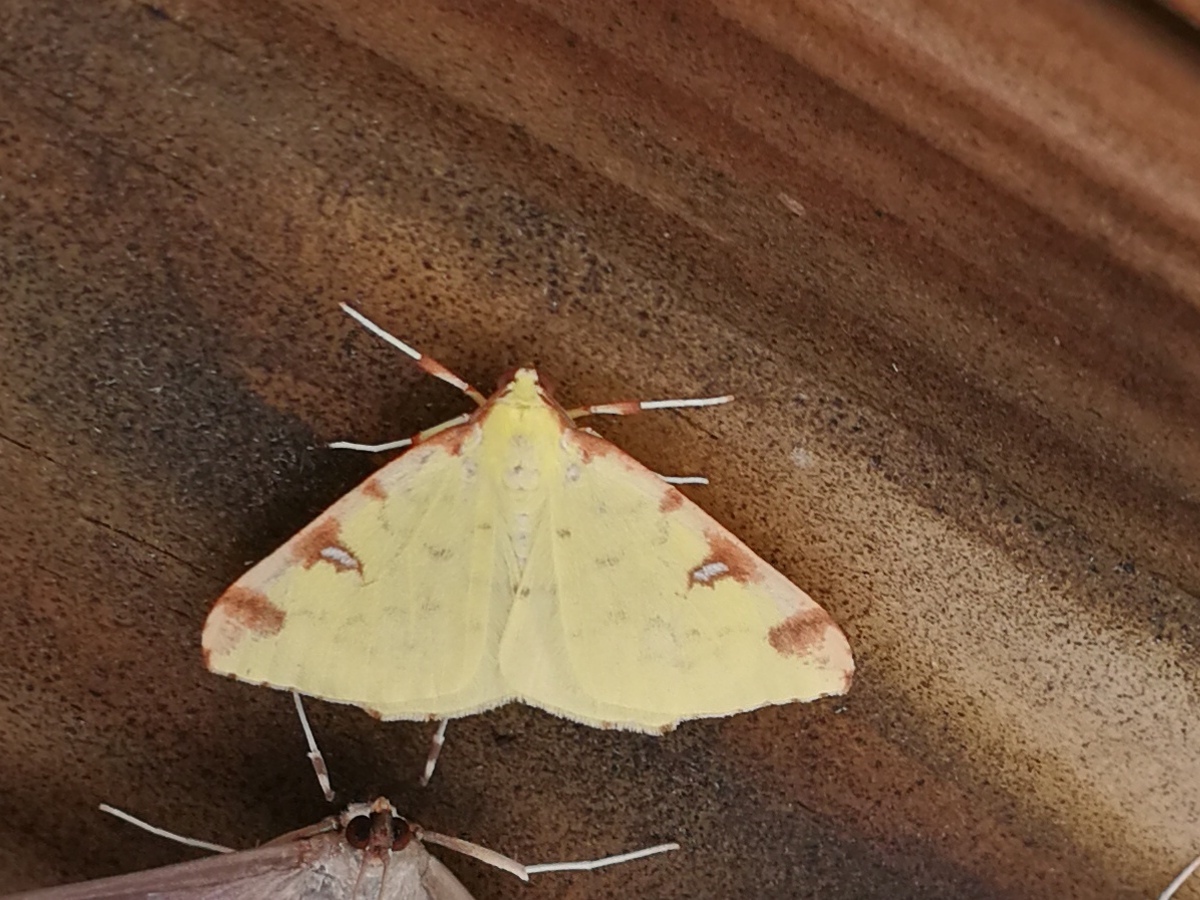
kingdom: Animalia
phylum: Arthropoda
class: Insecta
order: Lepidoptera
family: Geometridae
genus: Opisthograptis
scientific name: Opisthograptis luteolata
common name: Brimstone moth
